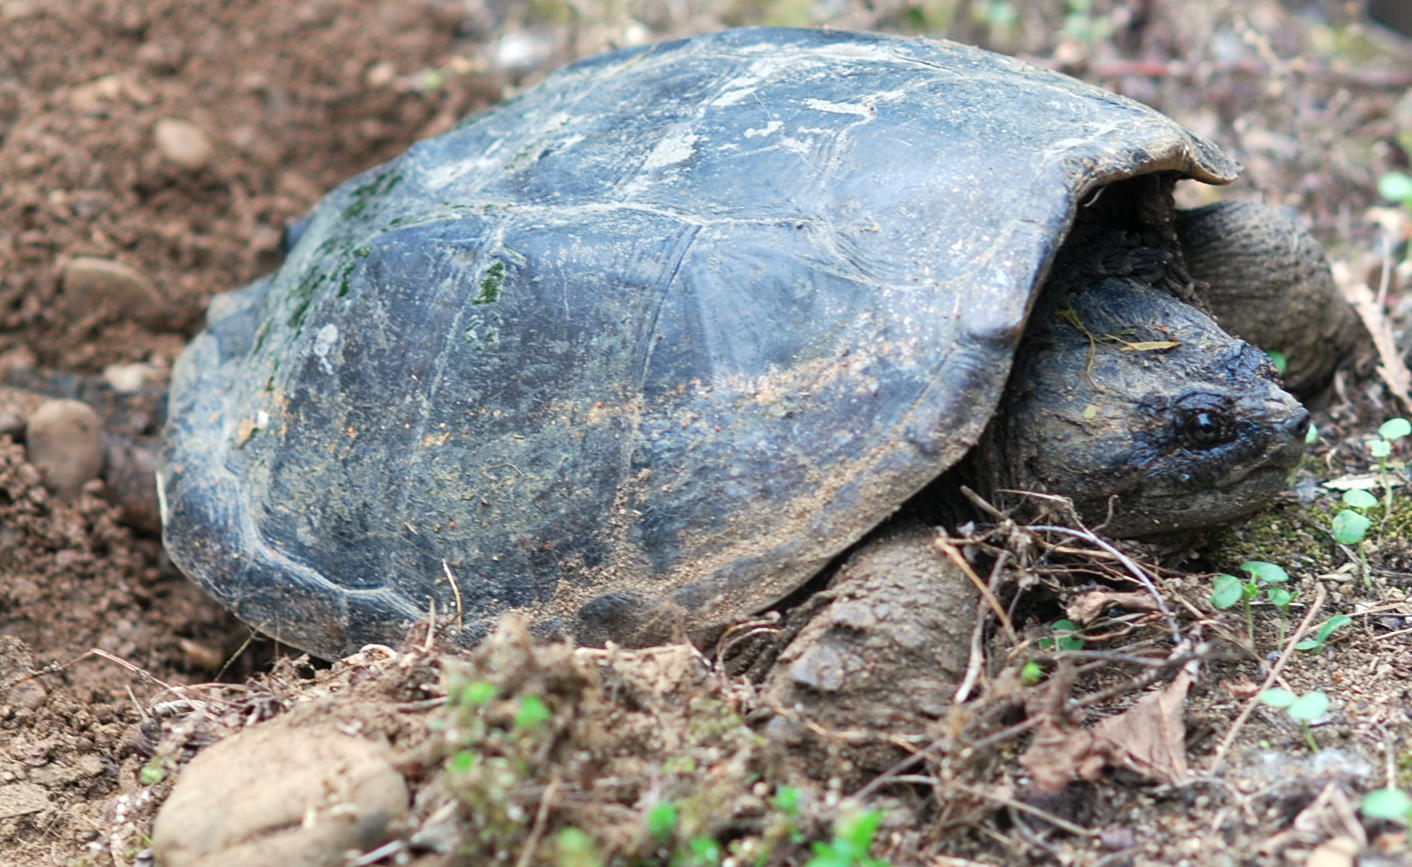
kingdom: Animalia
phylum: Chordata
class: Testudines
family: Chelydridae
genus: Chelydra
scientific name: Chelydra serpentina
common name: Common snapping turtle
